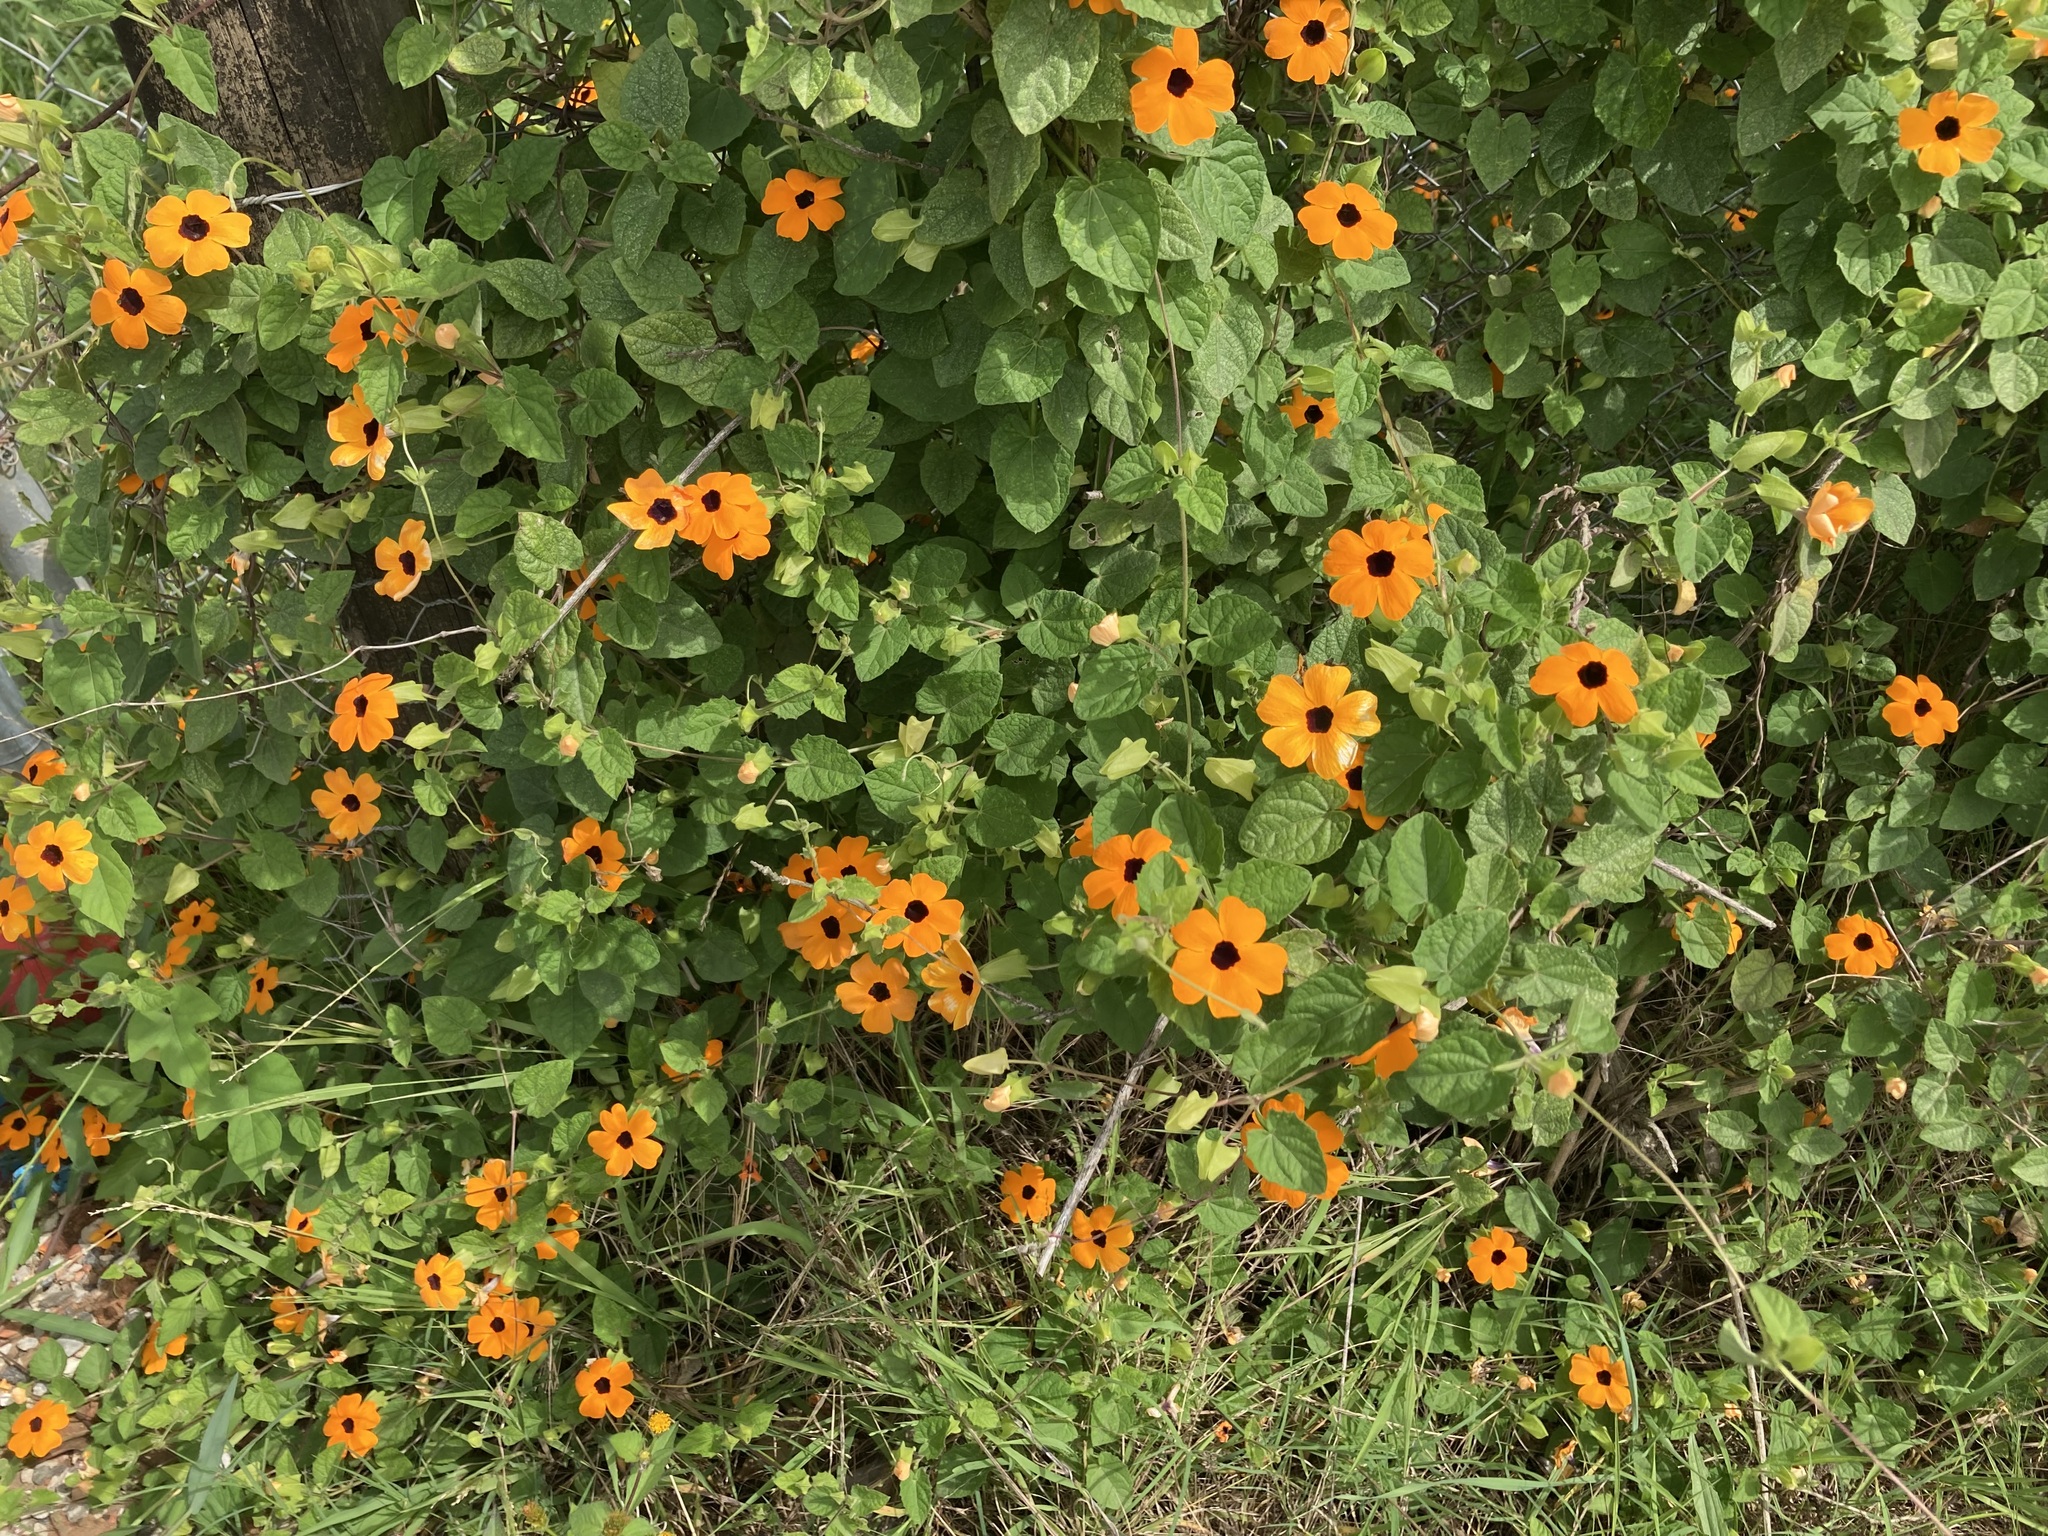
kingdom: Plantae
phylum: Tracheophyta
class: Magnoliopsida
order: Lamiales
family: Acanthaceae
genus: Thunbergia
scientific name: Thunbergia alata
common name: Blackeyed susan vine
